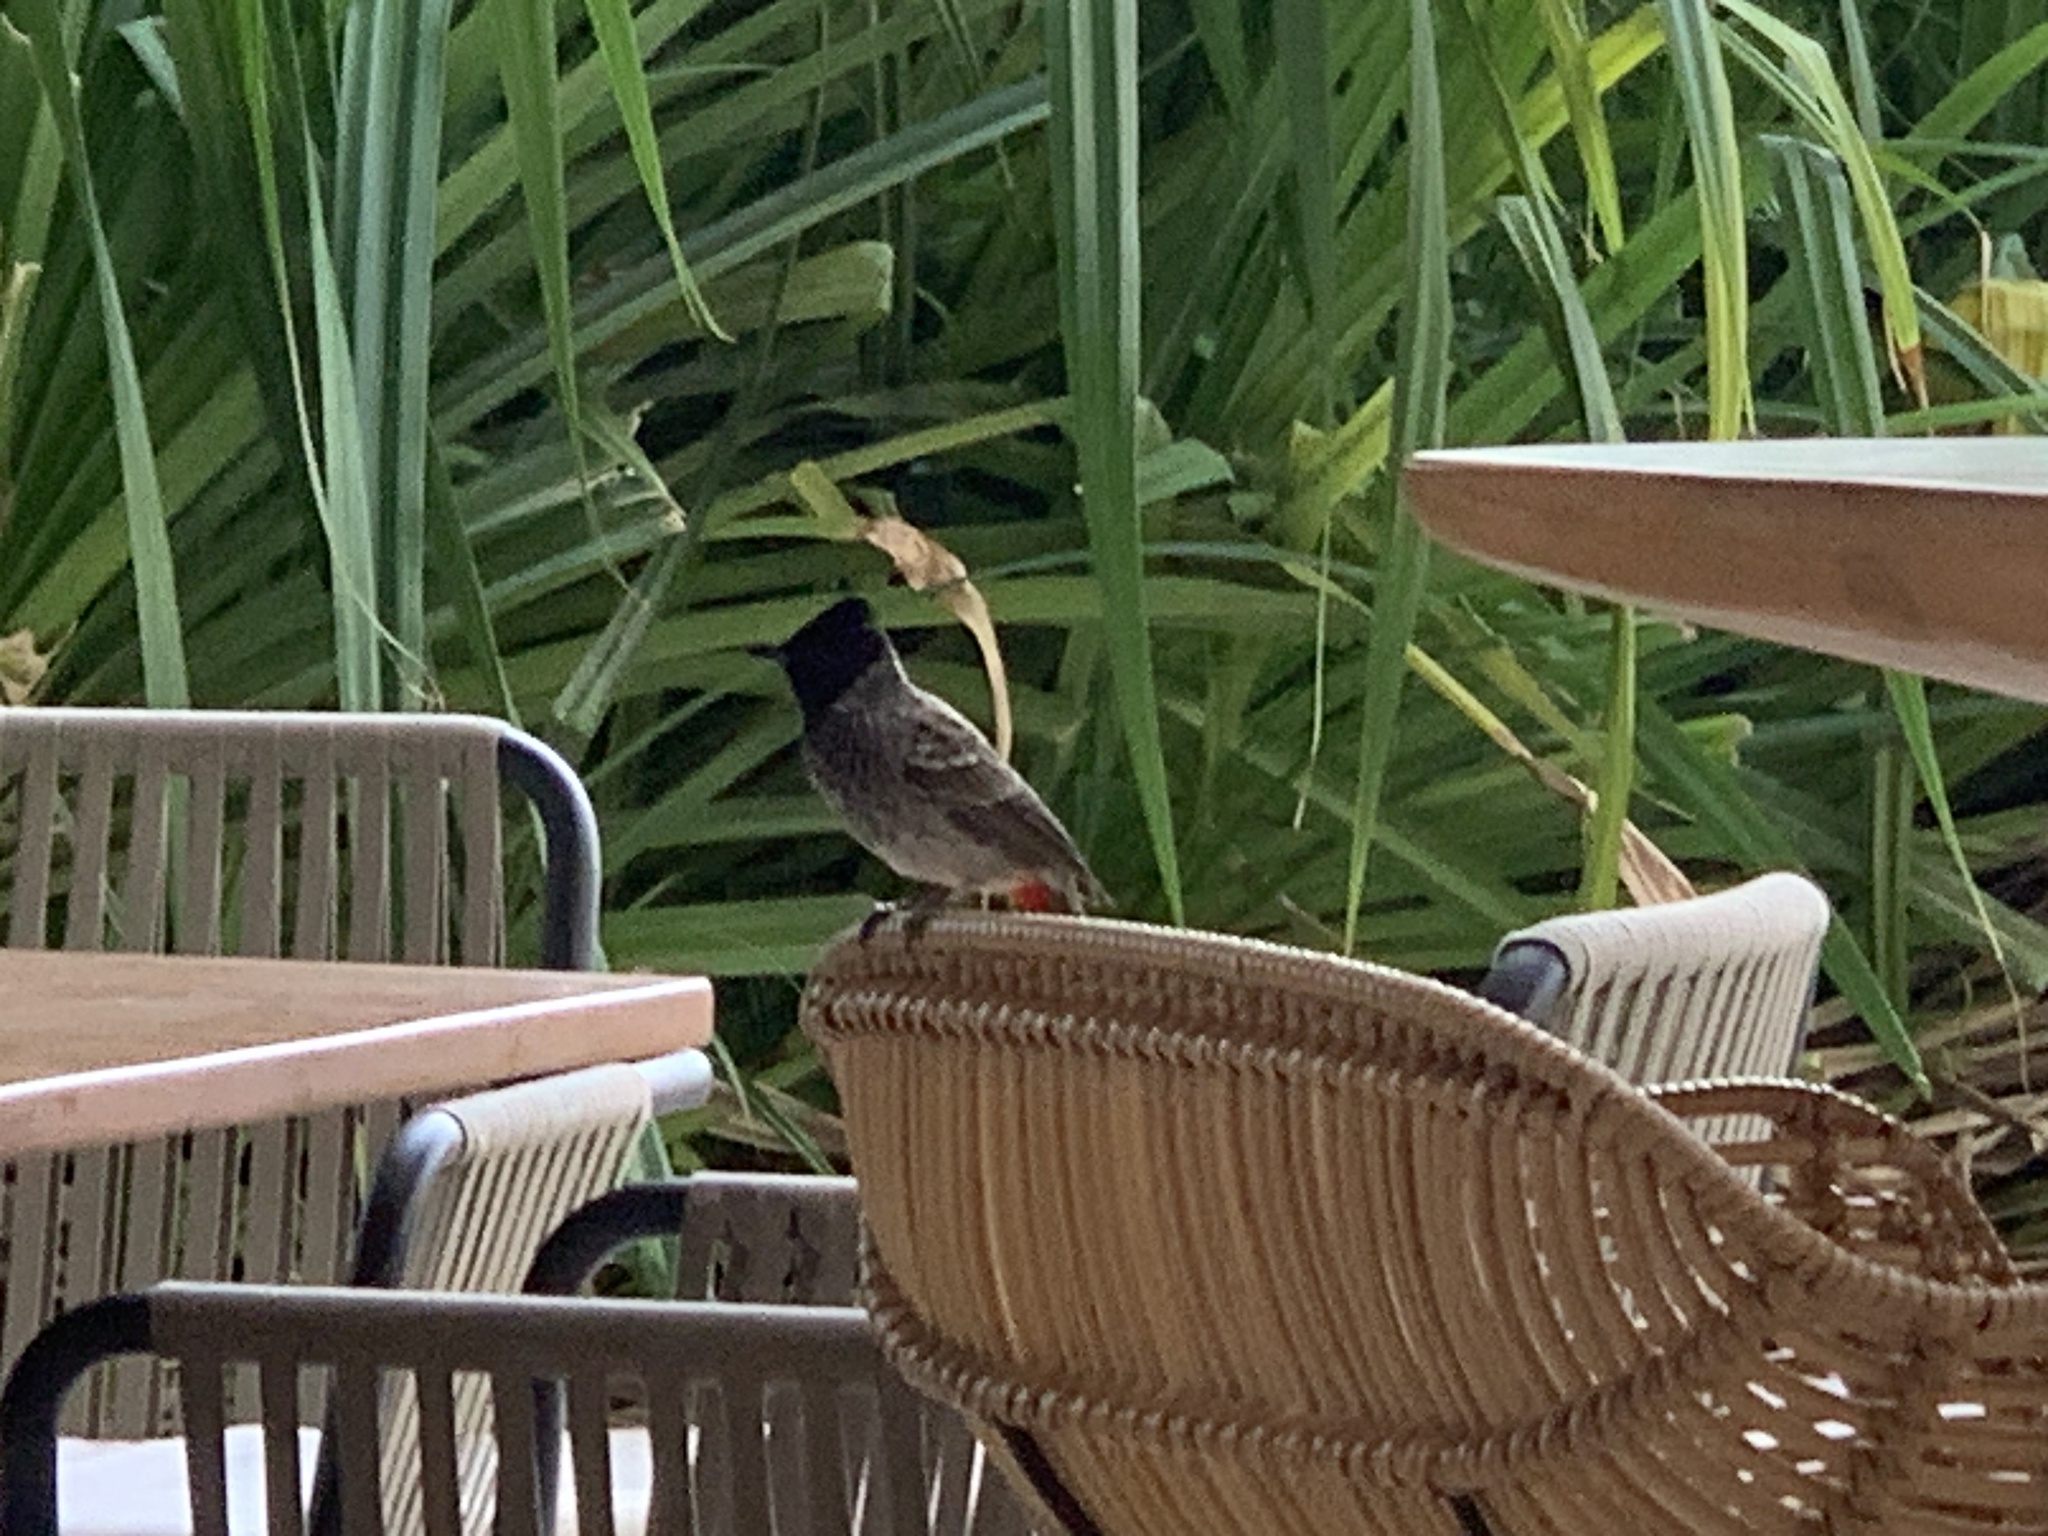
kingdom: Animalia
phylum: Chordata
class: Aves
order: Passeriformes
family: Pycnonotidae
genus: Pycnonotus
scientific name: Pycnonotus cafer
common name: Red-vented bulbul
